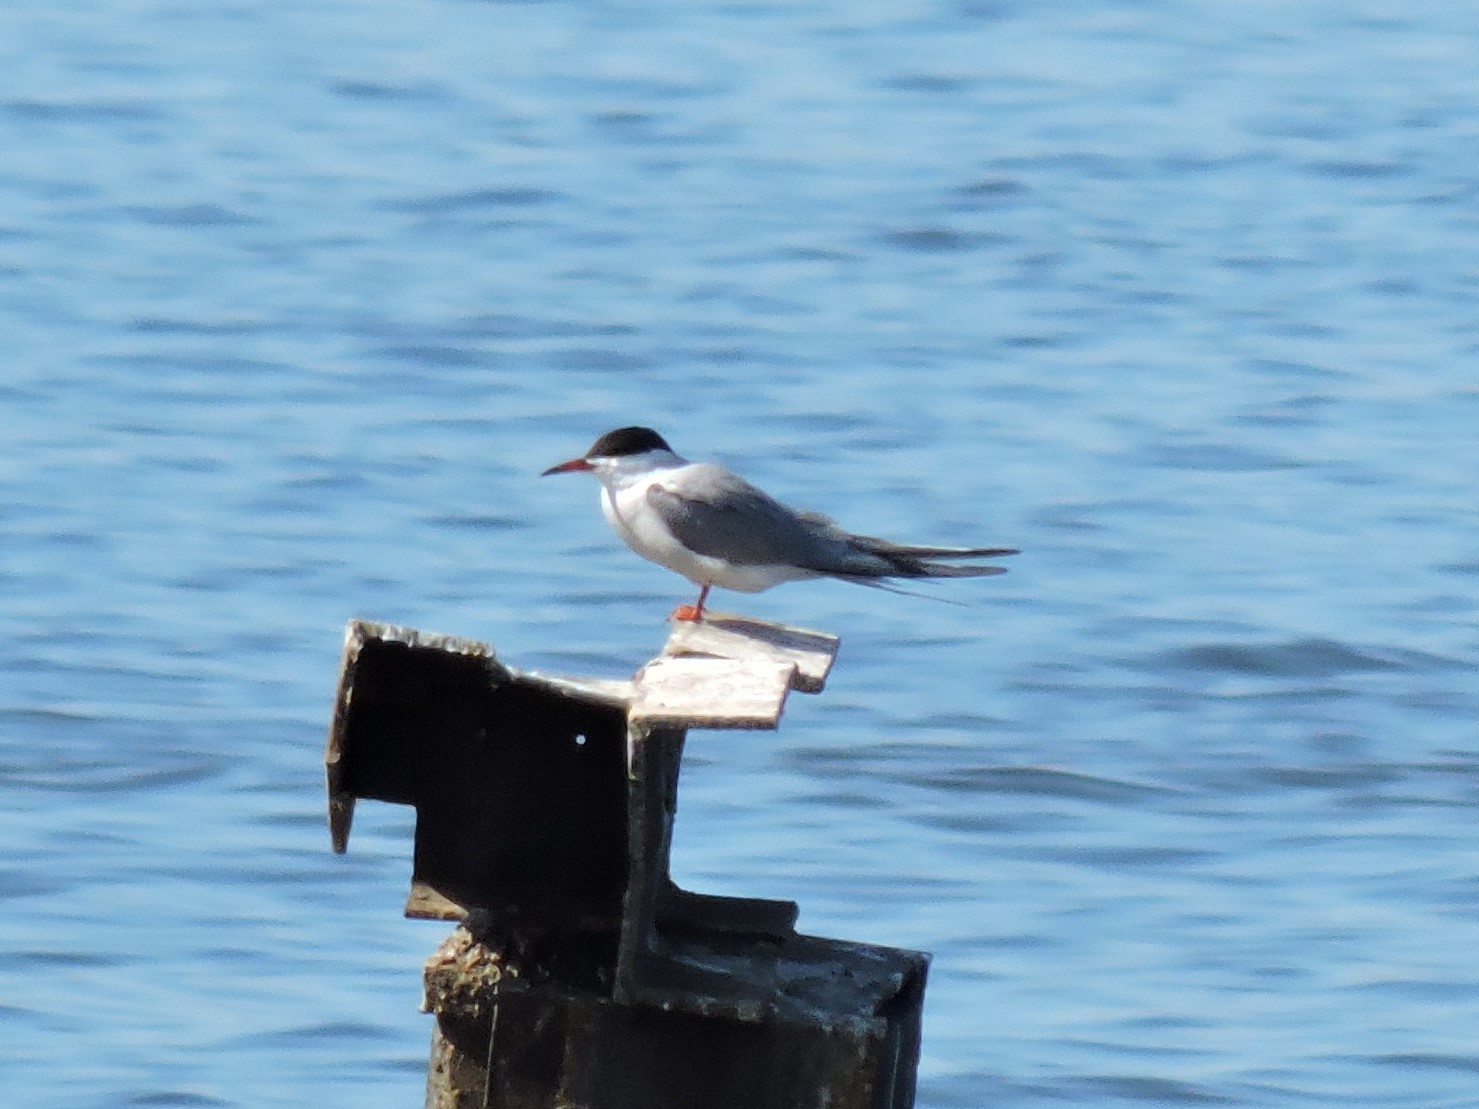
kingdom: Animalia
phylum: Chordata
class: Aves
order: Charadriiformes
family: Laridae
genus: Sterna
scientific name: Sterna hirundo
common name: Common tern
